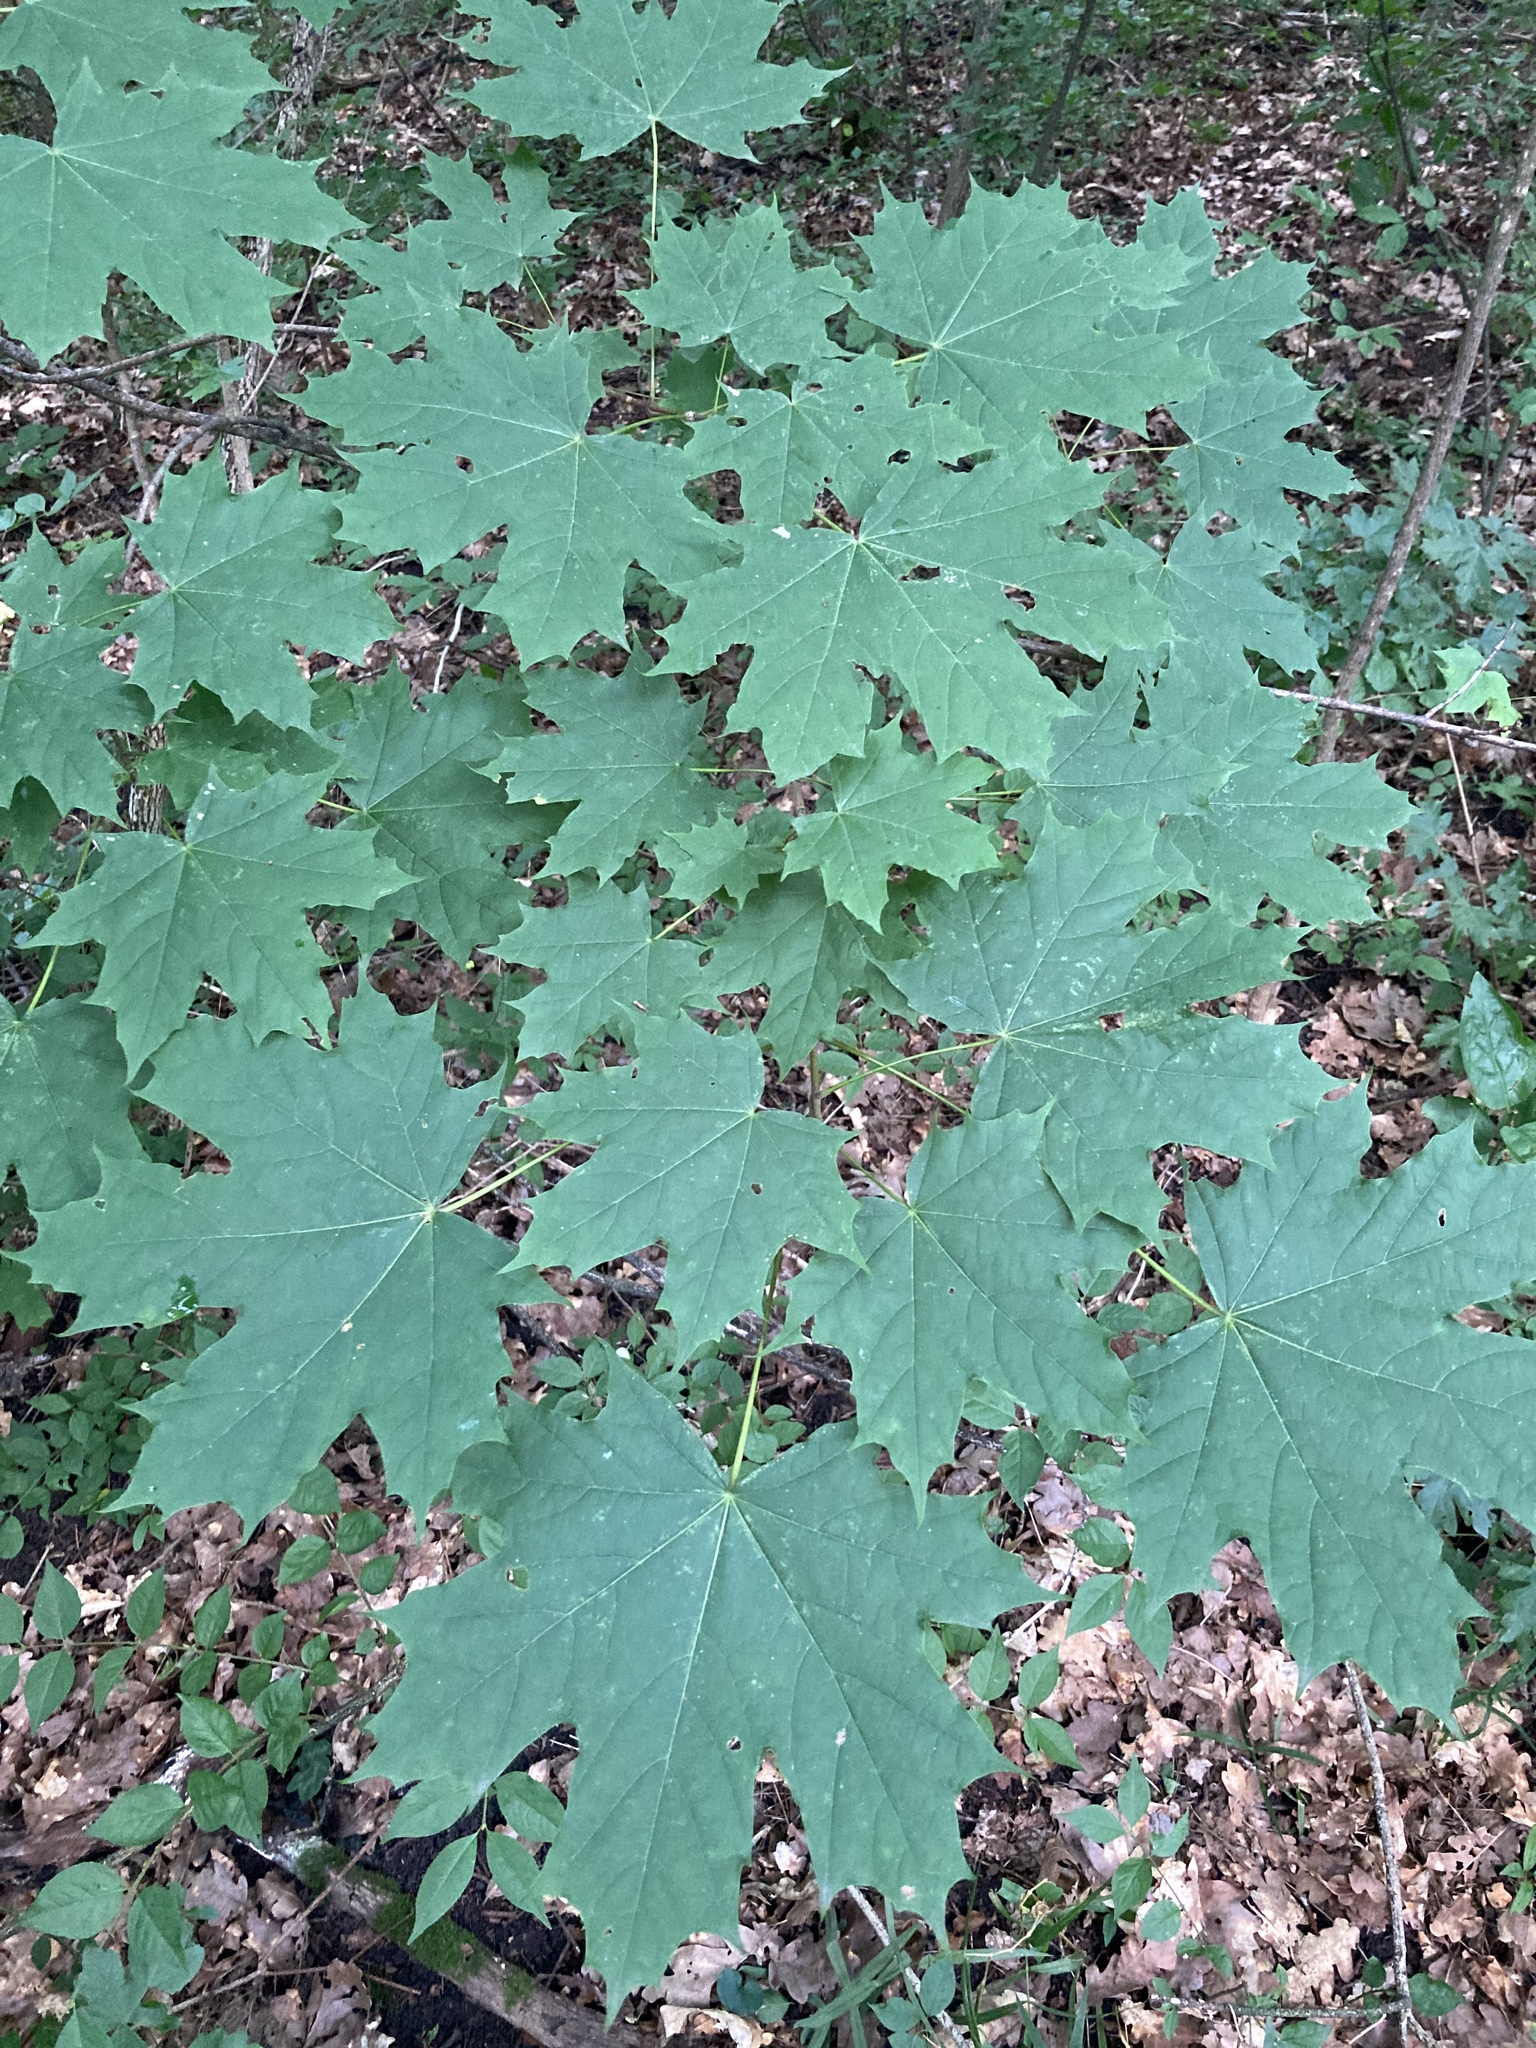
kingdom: Plantae
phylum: Tracheophyta
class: Magnoliopsida
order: Sapindales
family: Sapindaceae
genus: Acer
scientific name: Acer platanoides
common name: Norway maple
